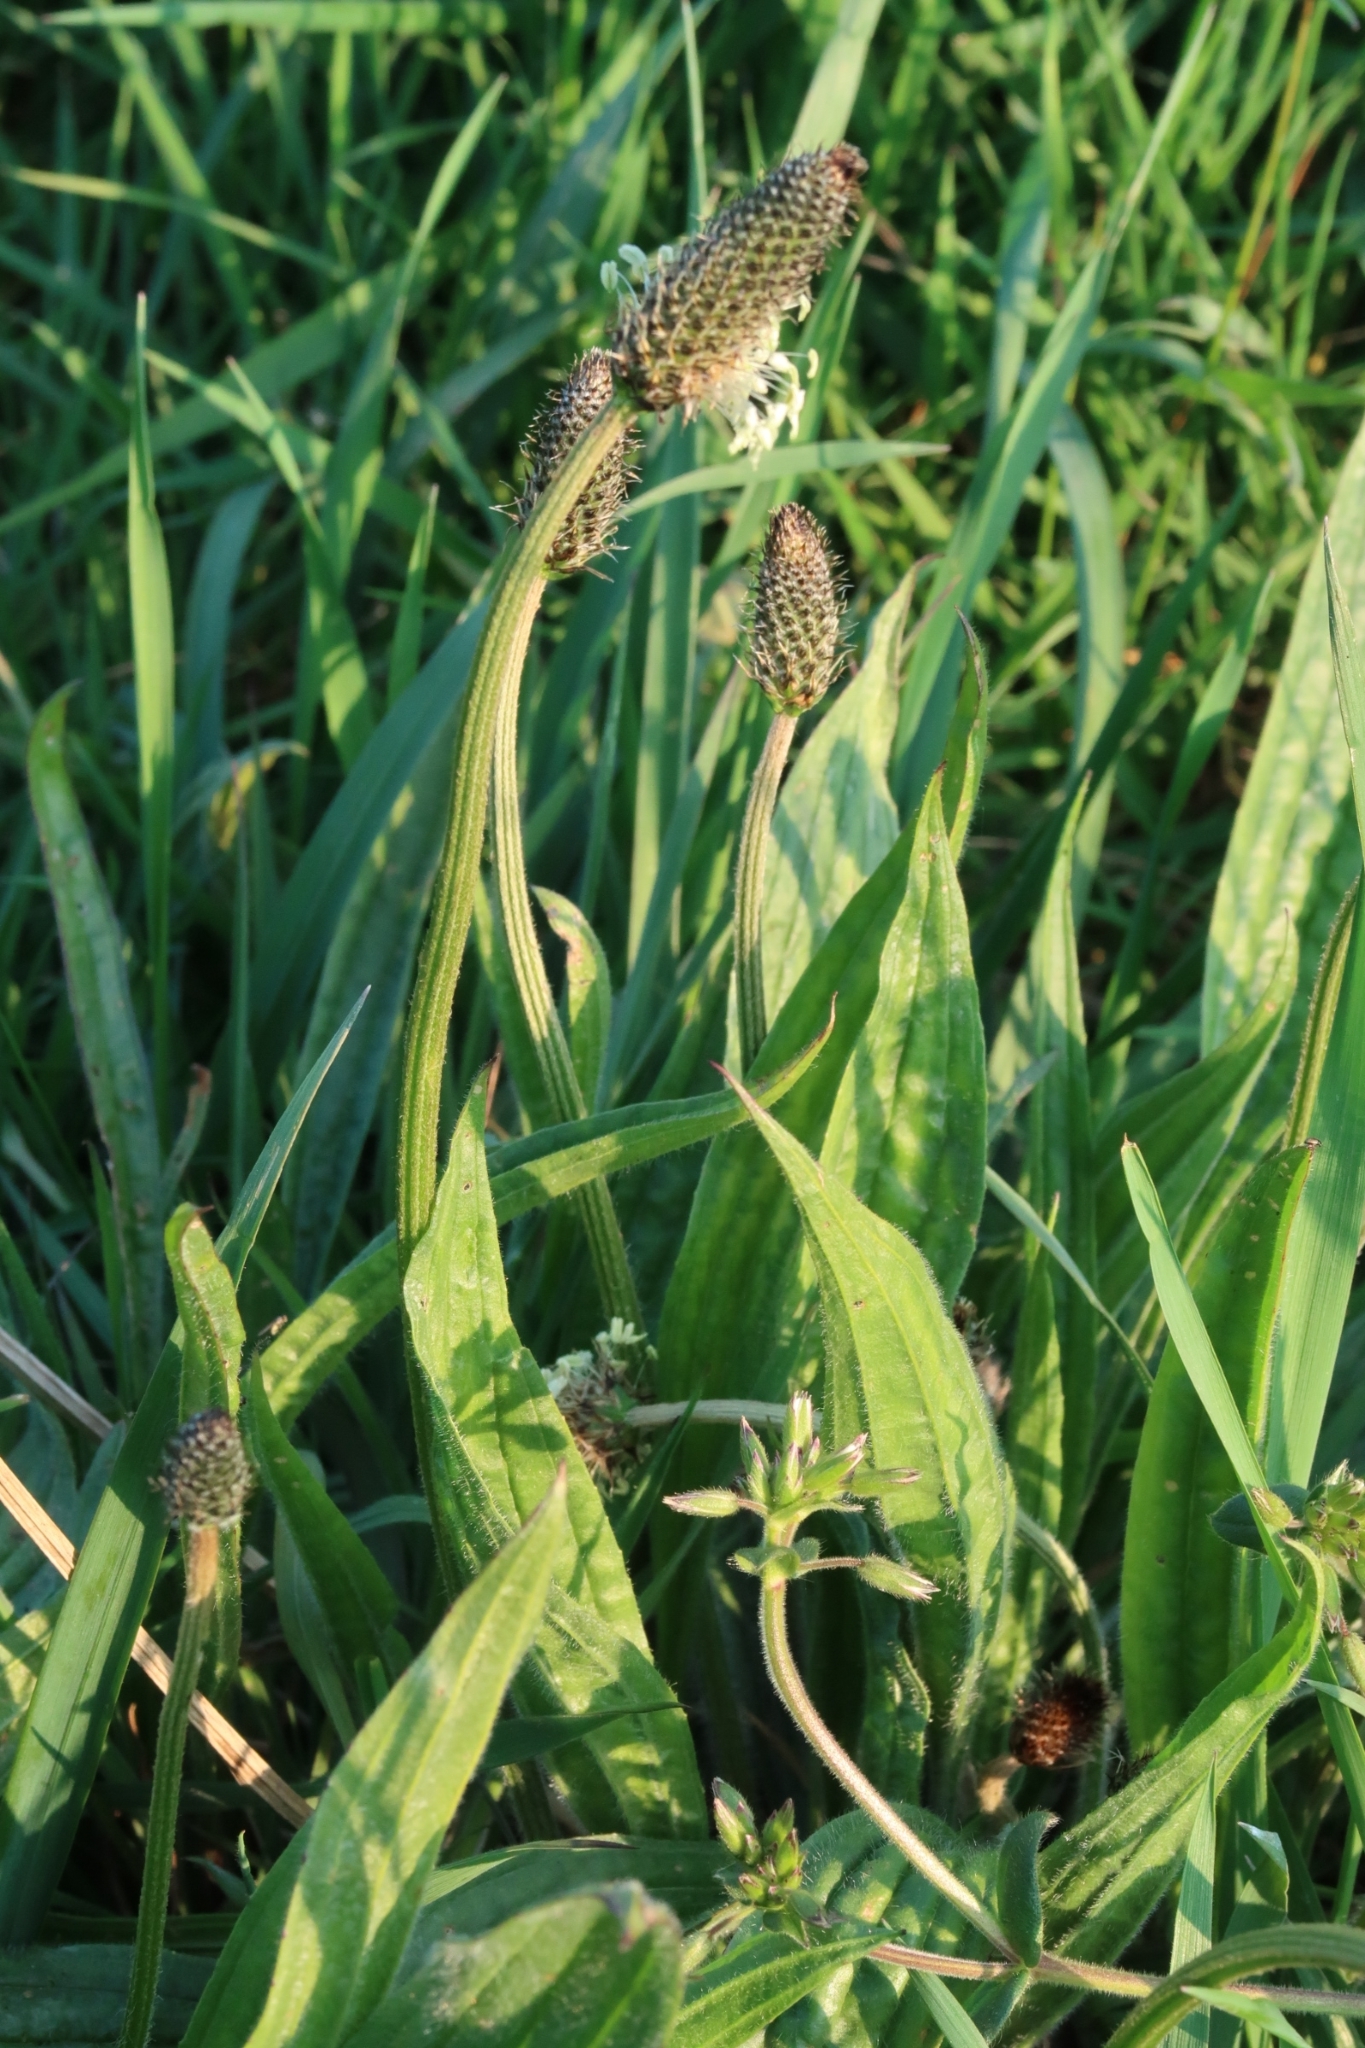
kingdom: Plantae
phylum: Tracheophyta
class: Magnoliopsida
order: Lamiales
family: Plantaginaceae
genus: Plantago
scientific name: Plantago lanceolata
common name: Ribwort plantain
